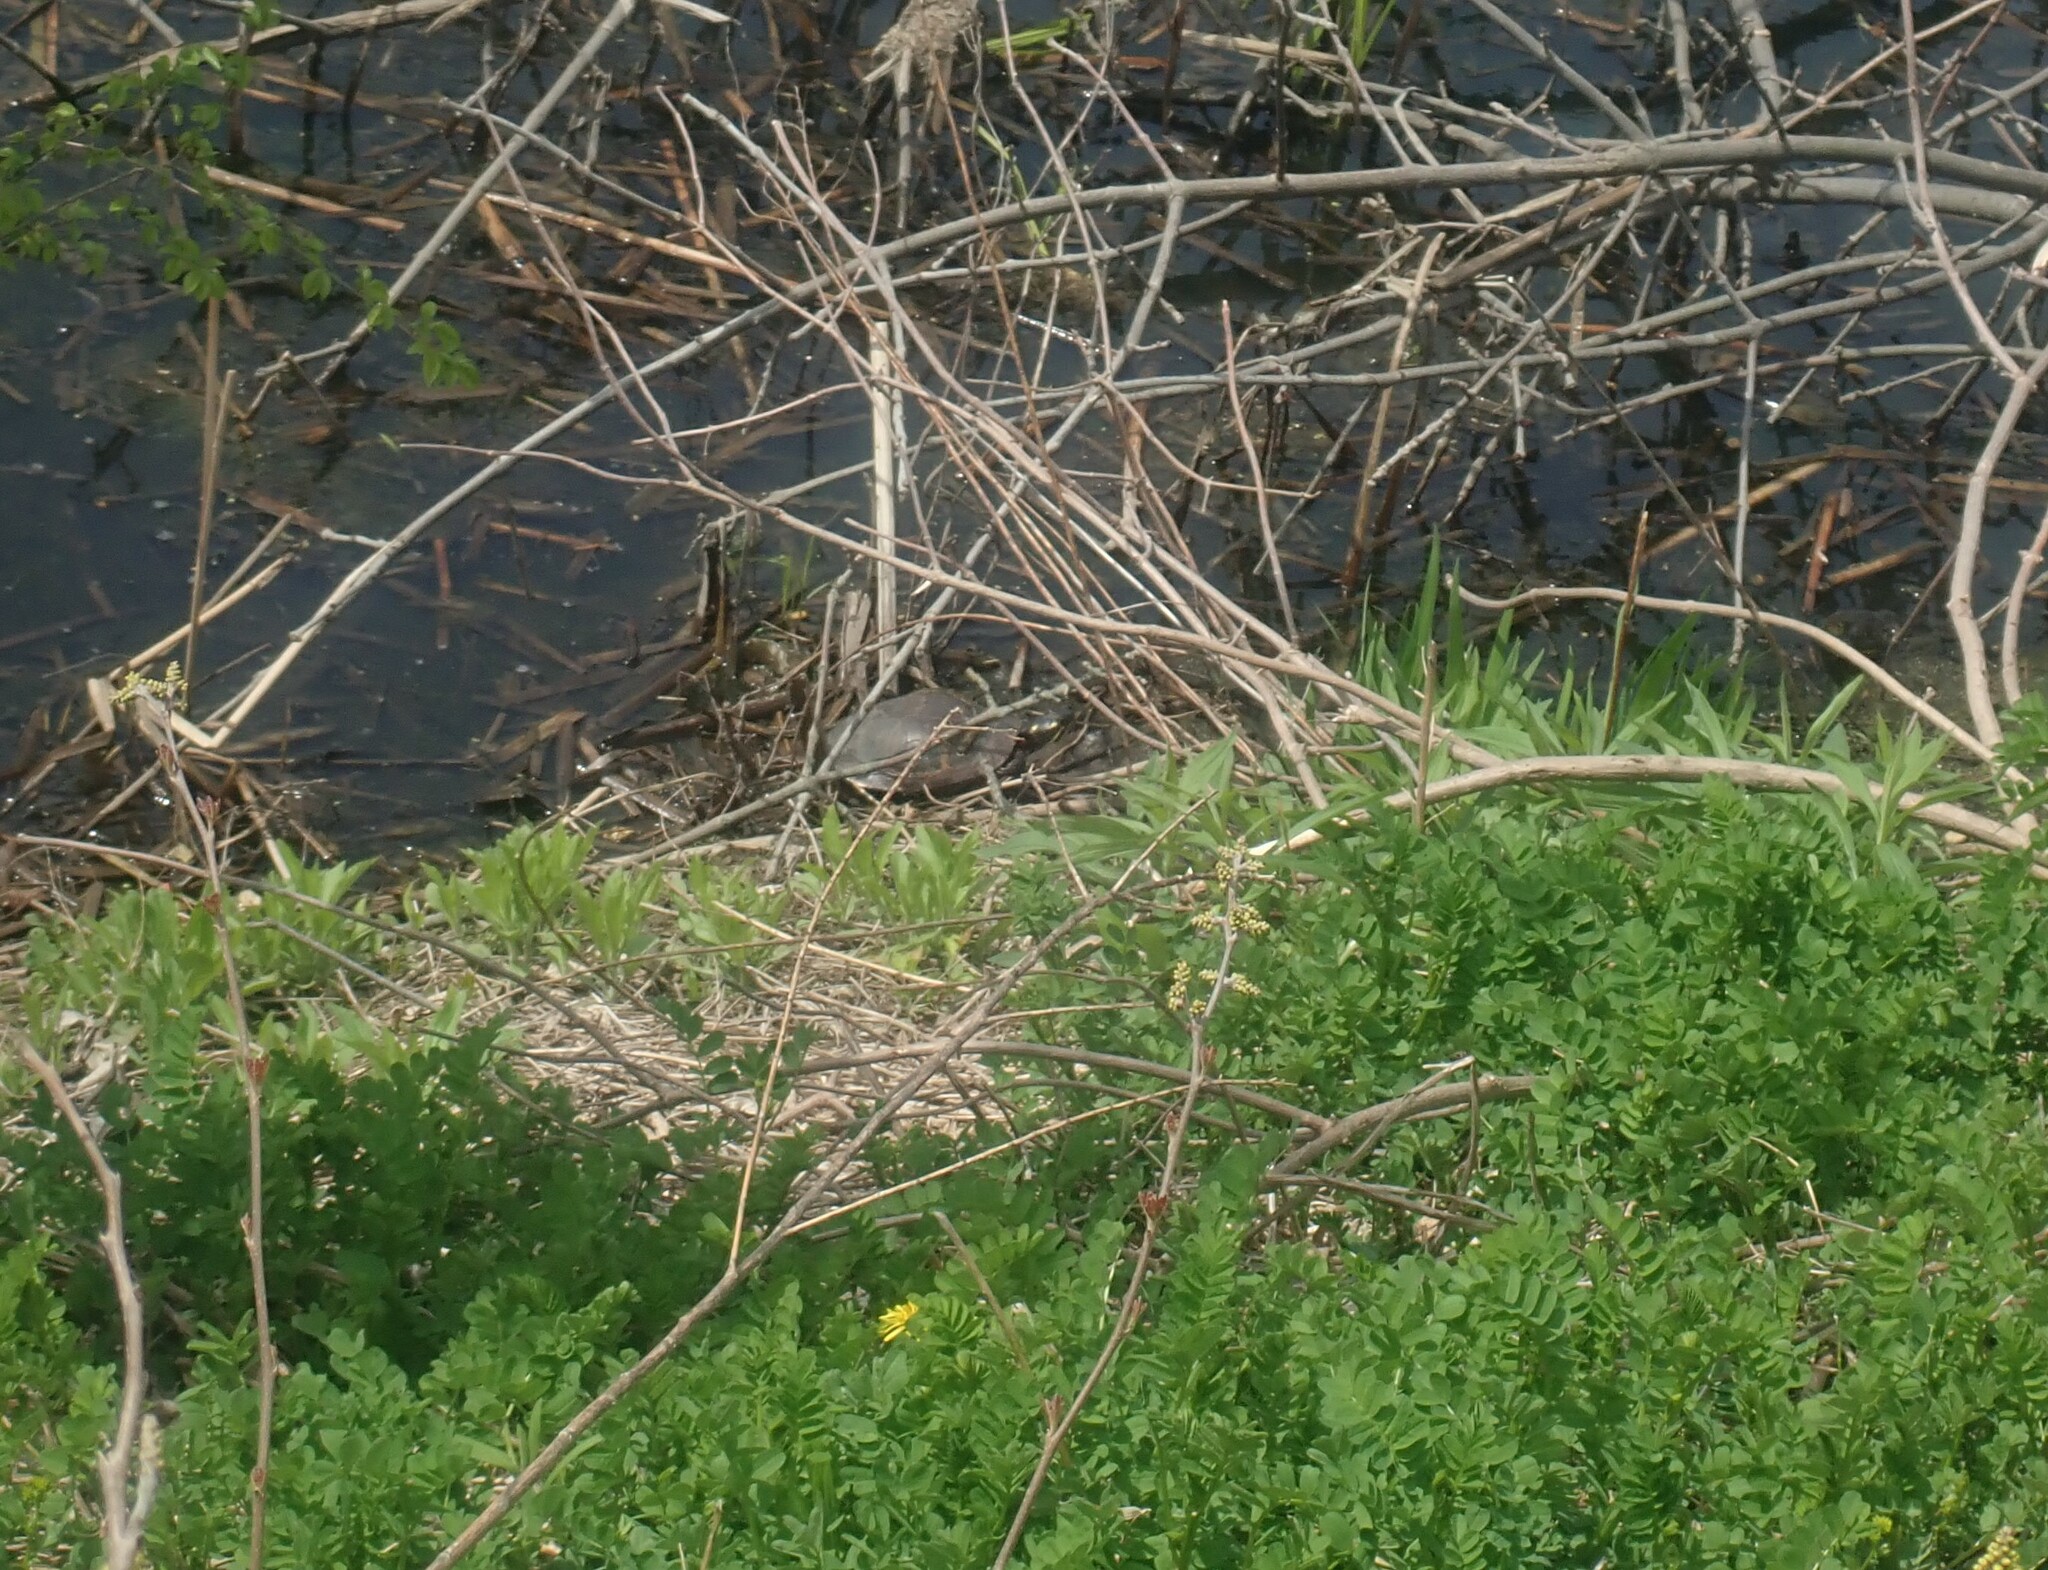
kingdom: Animalia
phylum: Chordata
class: Testudines
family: Emydidae
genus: Chrysemys
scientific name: Chrysemys picta
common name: Painted turtle
